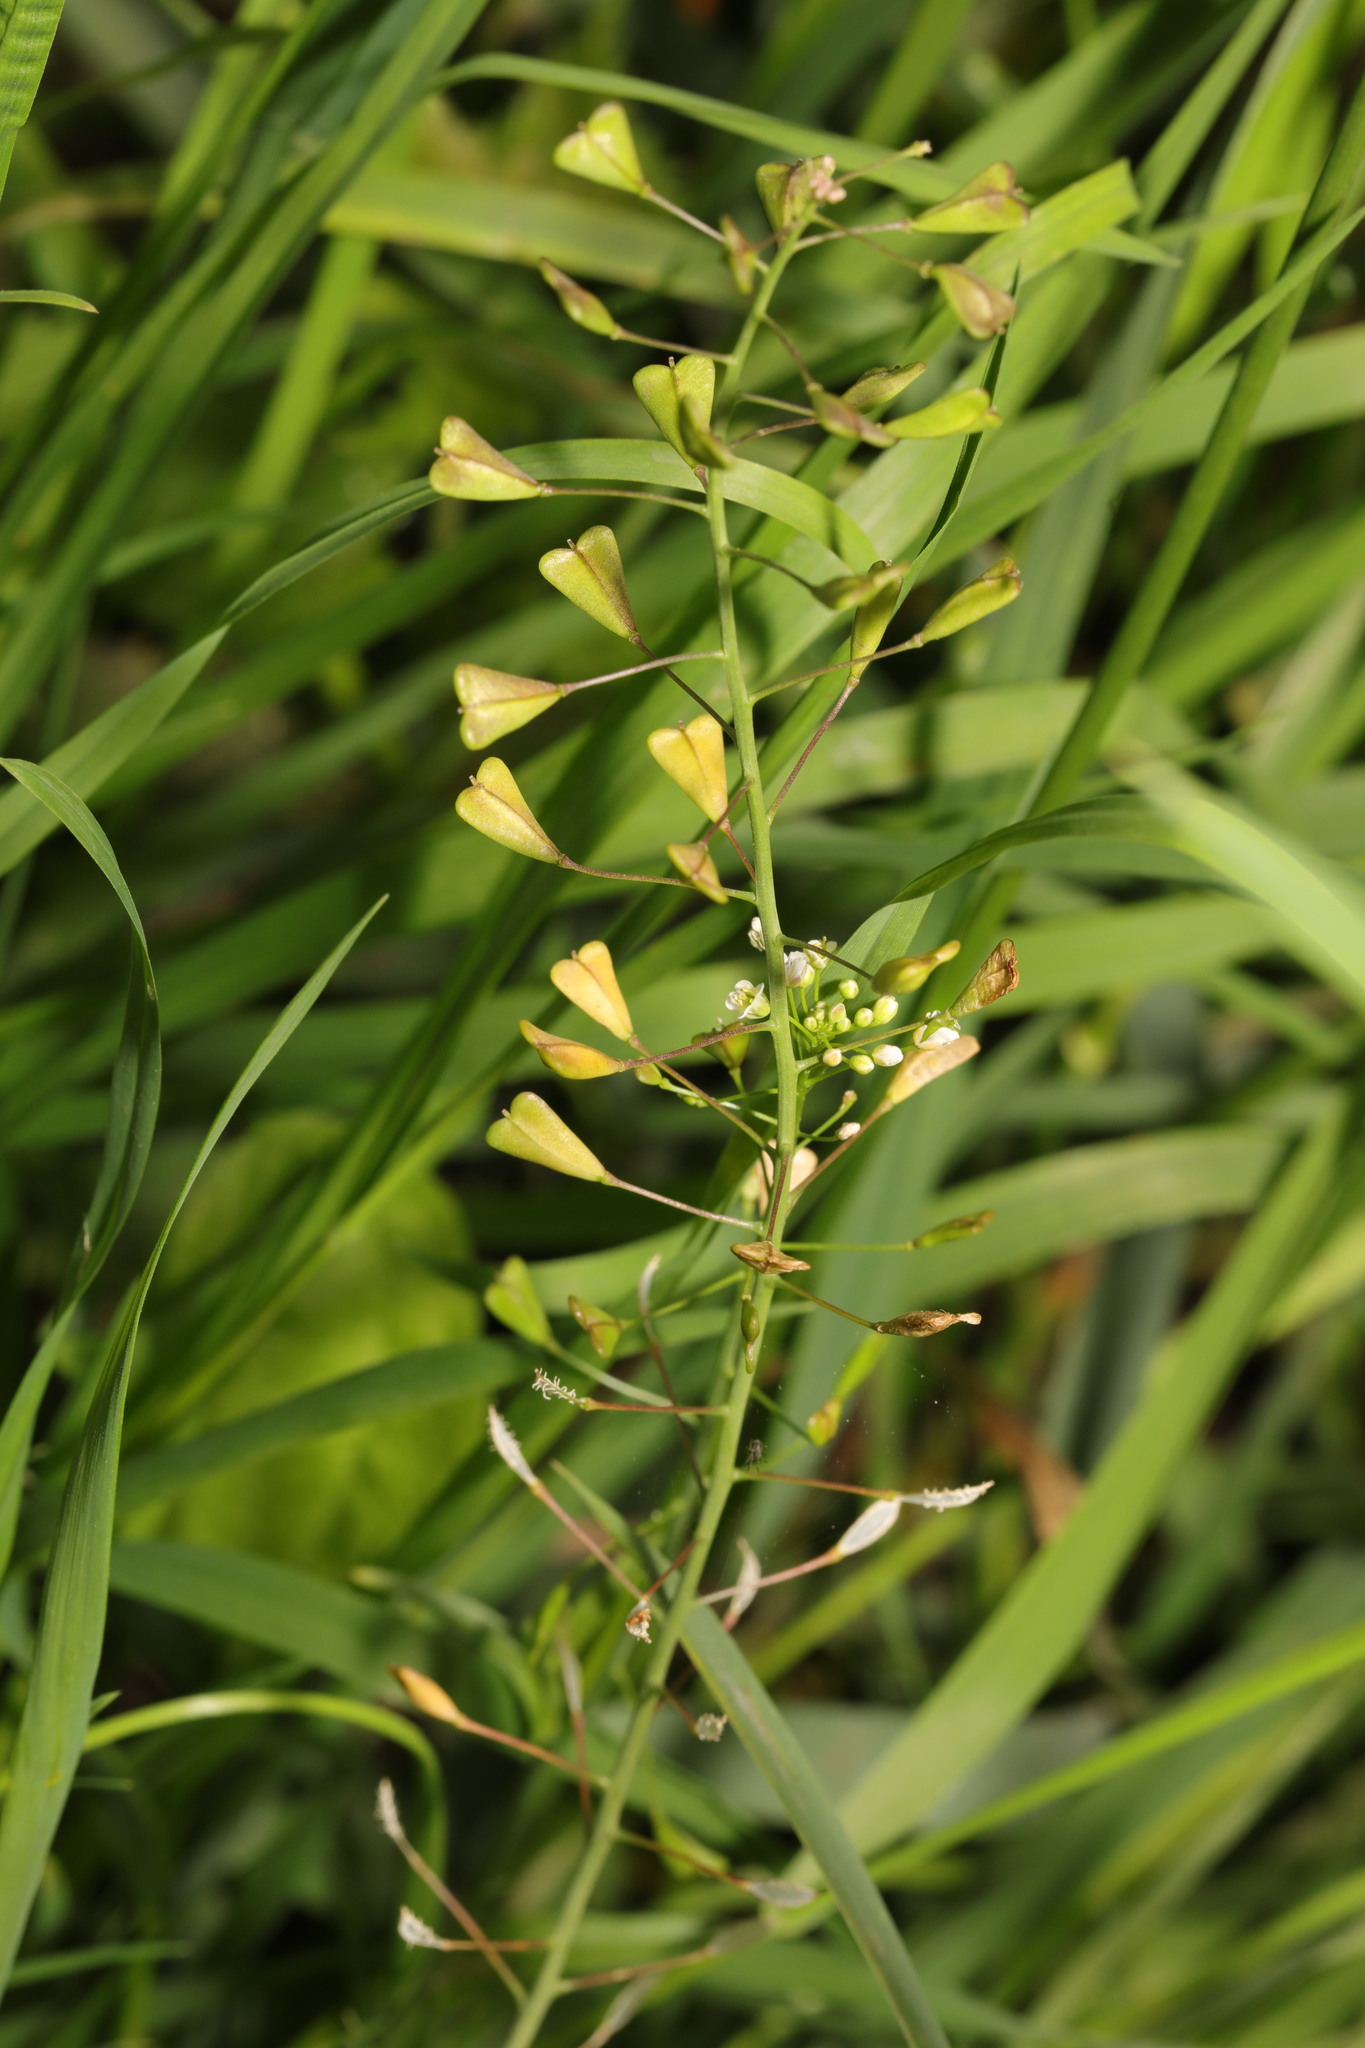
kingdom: Plantae
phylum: Tracheophyta
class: Magnoliopsida
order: Brassicales
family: Brassicaceae
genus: Capsella
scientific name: Capsella bursa-pastoris
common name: Shepherd's purse
